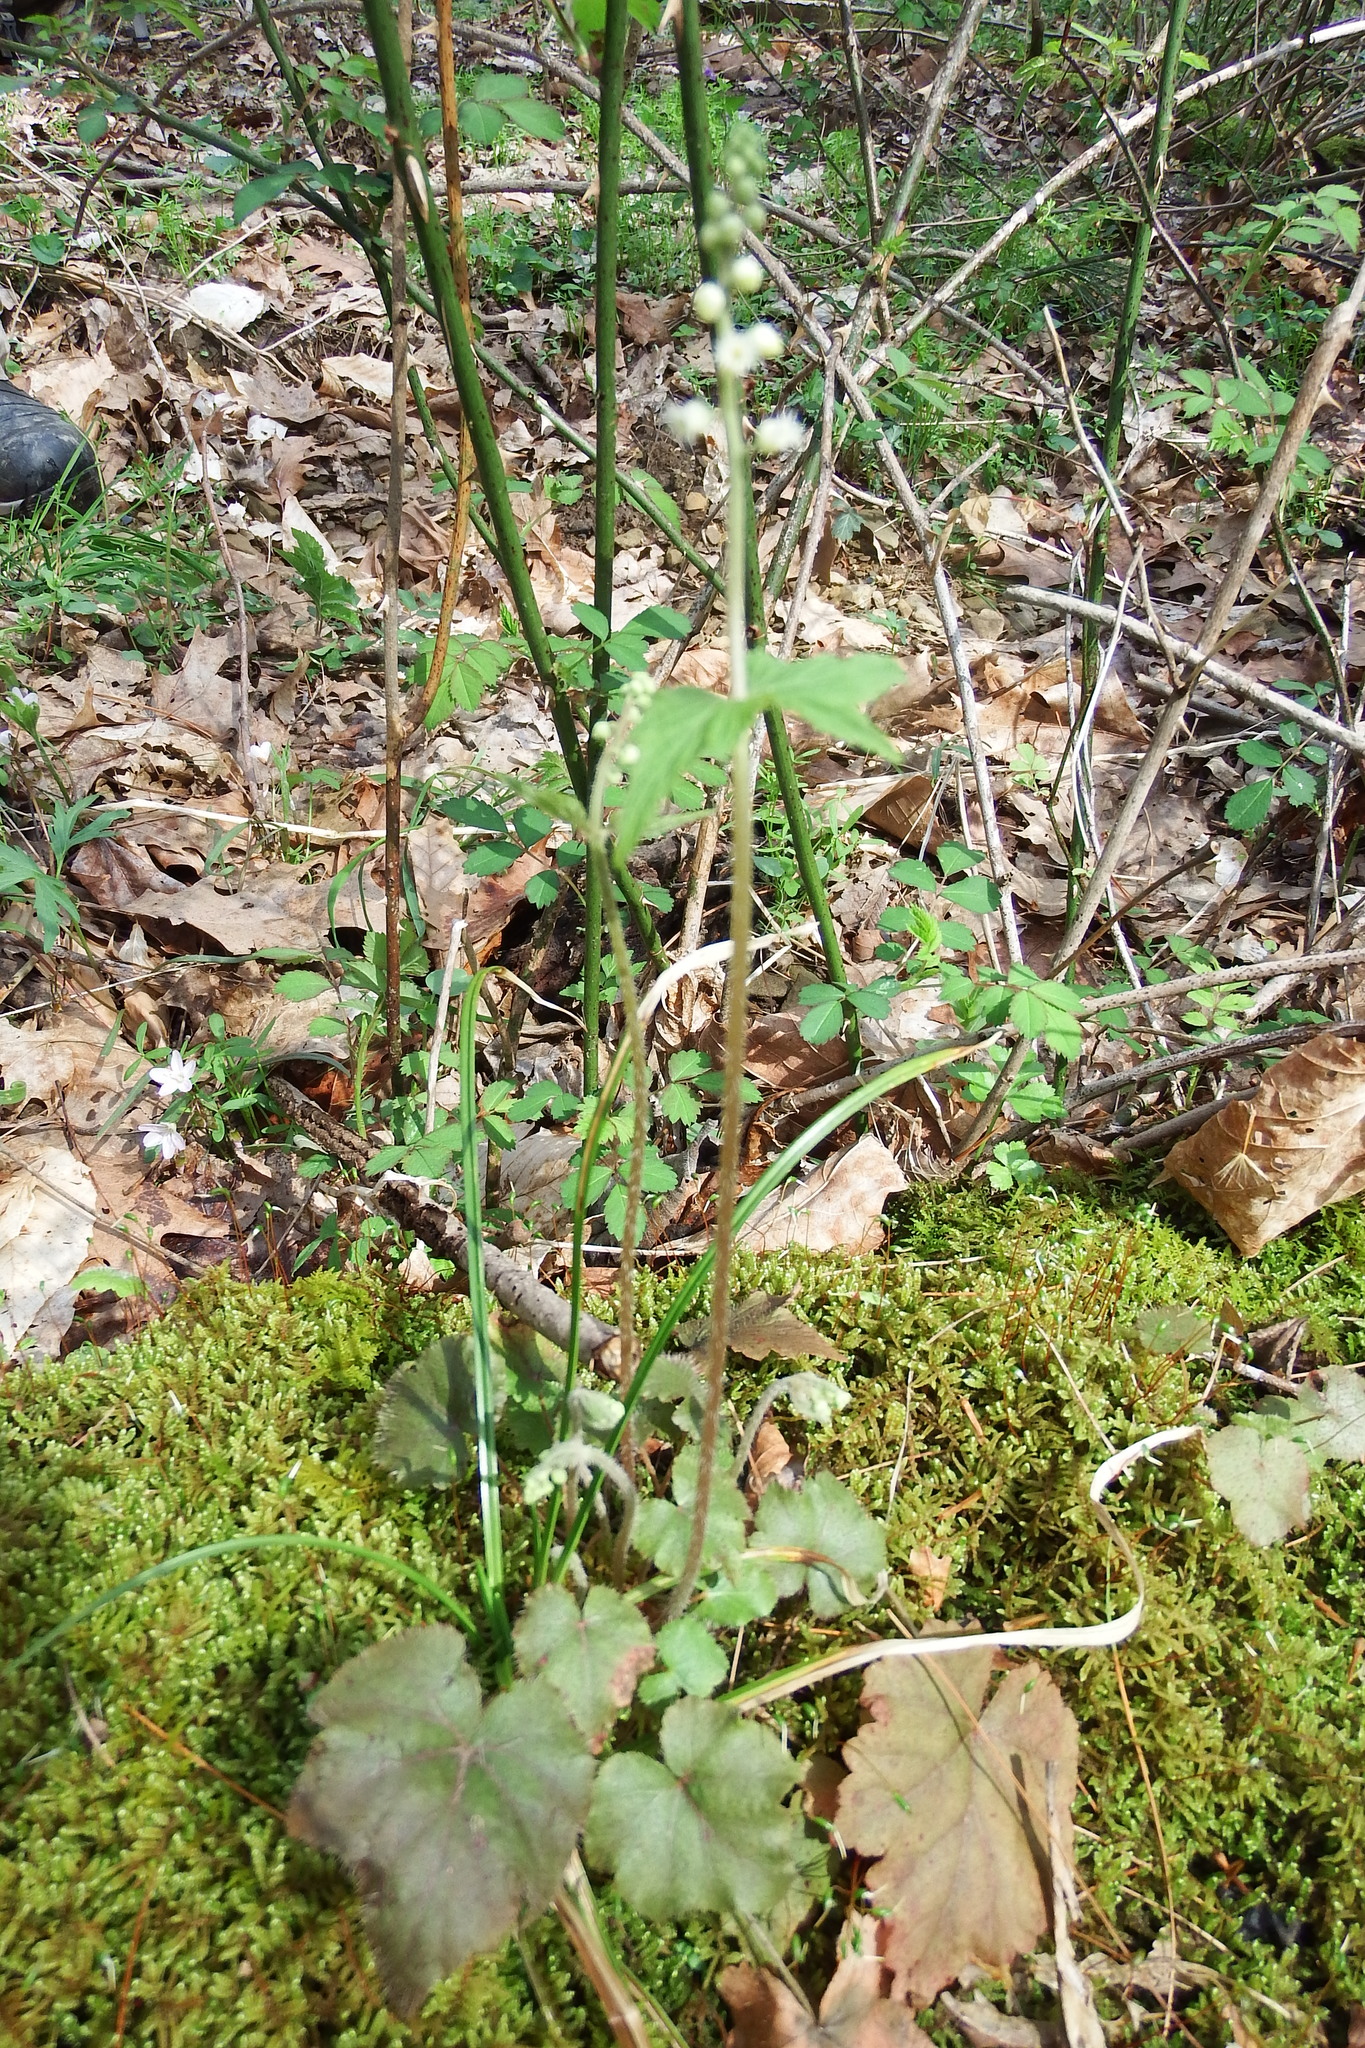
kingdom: Plantae
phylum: Tracheophyta
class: Magnoliopsida
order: Saxifragales
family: Saxifragaceae
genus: Mitella
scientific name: Mitella diphylla
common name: Coolwort
